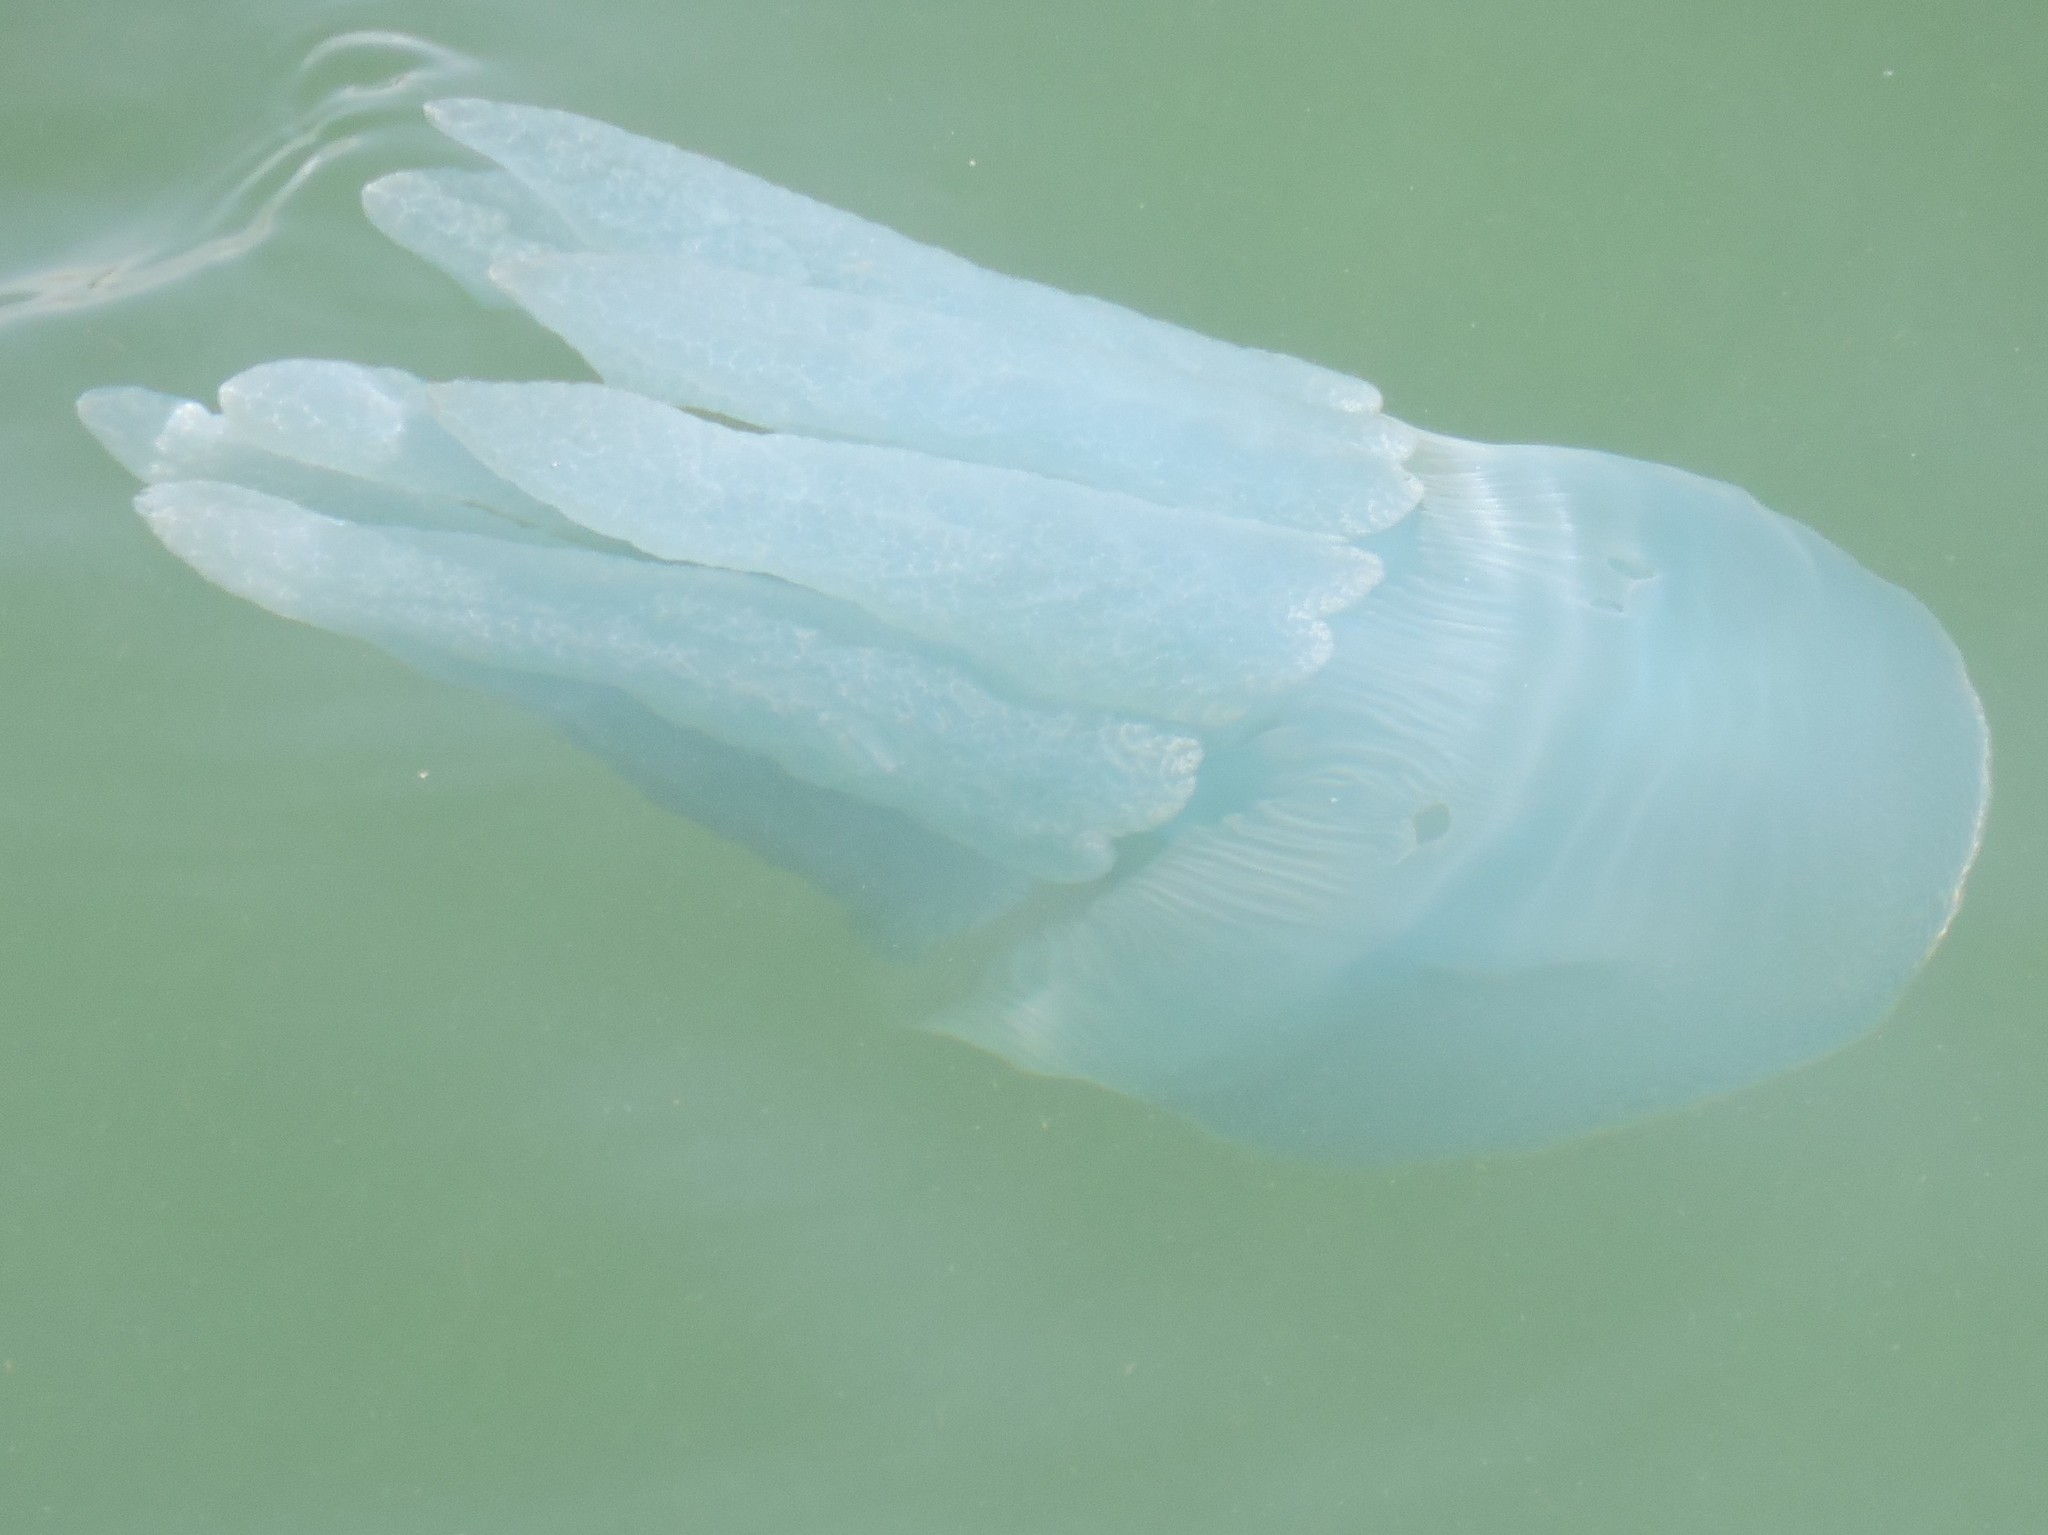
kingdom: Animalia
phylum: Cnidaria
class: Scyphozoa
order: Rhizostomeae
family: Catostylidae
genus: Catostylus
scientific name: Catostylus mosaicus
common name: Blue blubber
